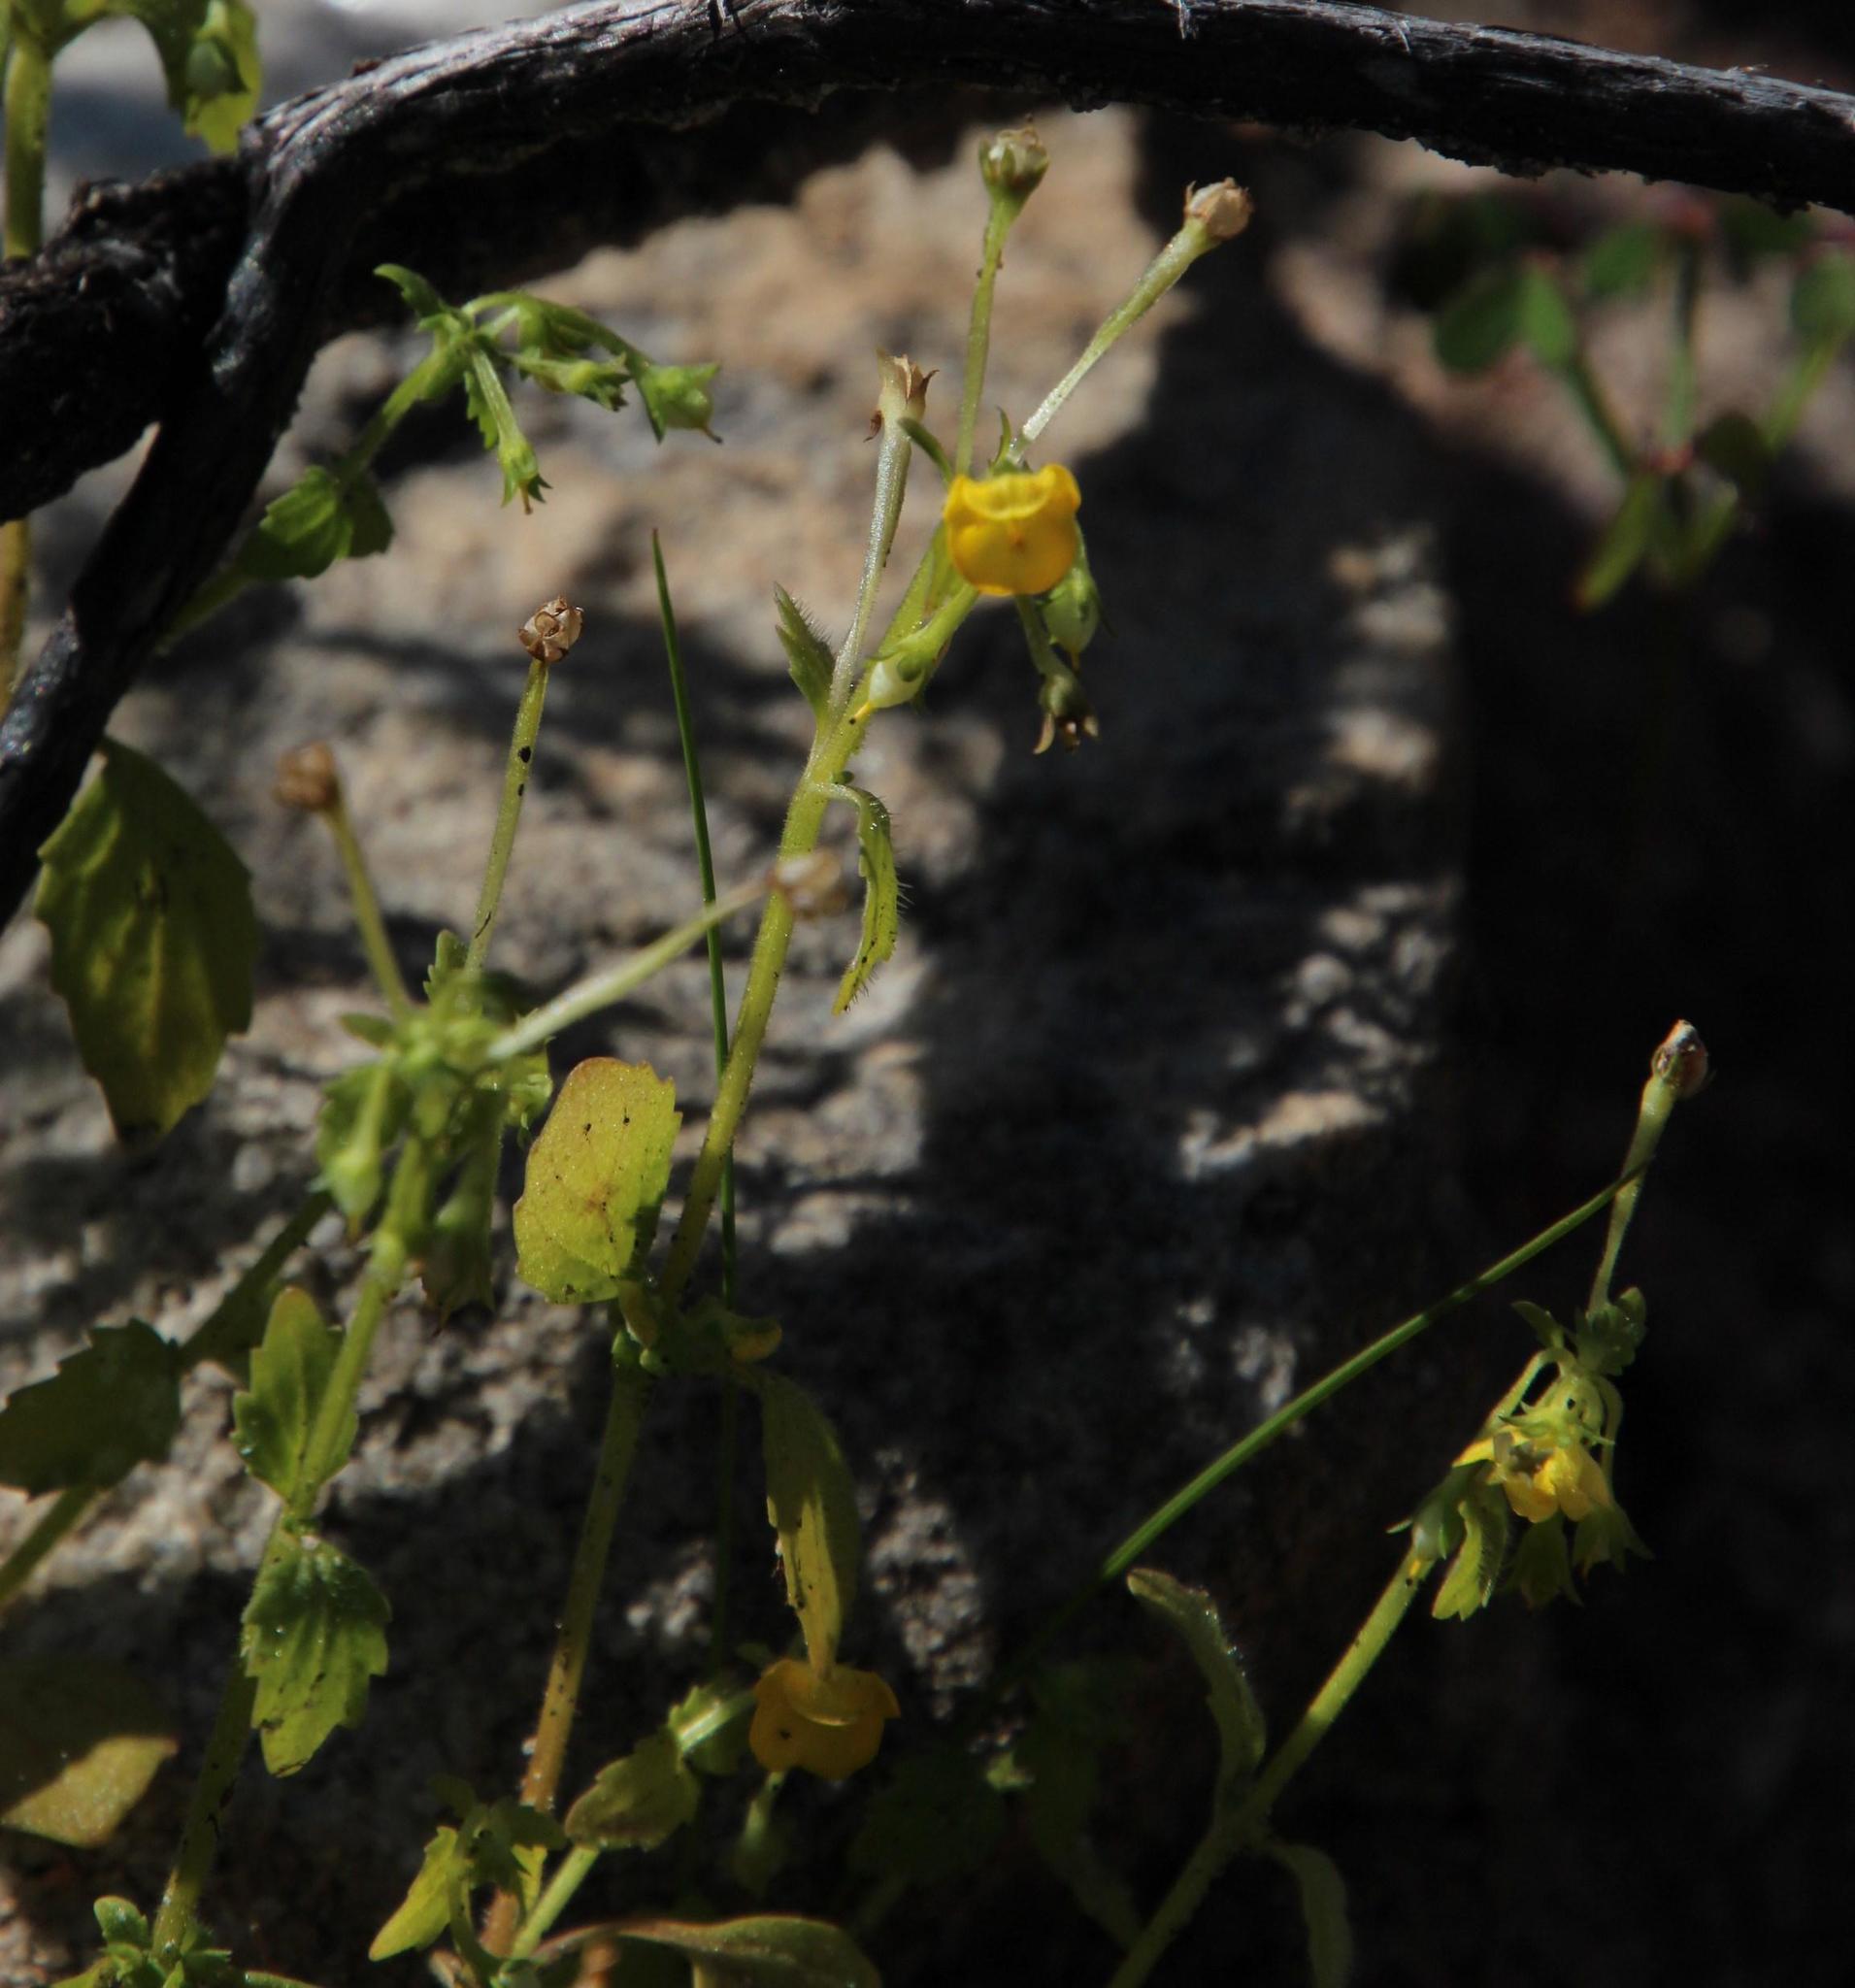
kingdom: Plantae
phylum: Tracheophyta
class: Magnoliopsida
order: Lamiales
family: Scrophulariaceae
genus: Hemimeris
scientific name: Hemimeris sabulosa
